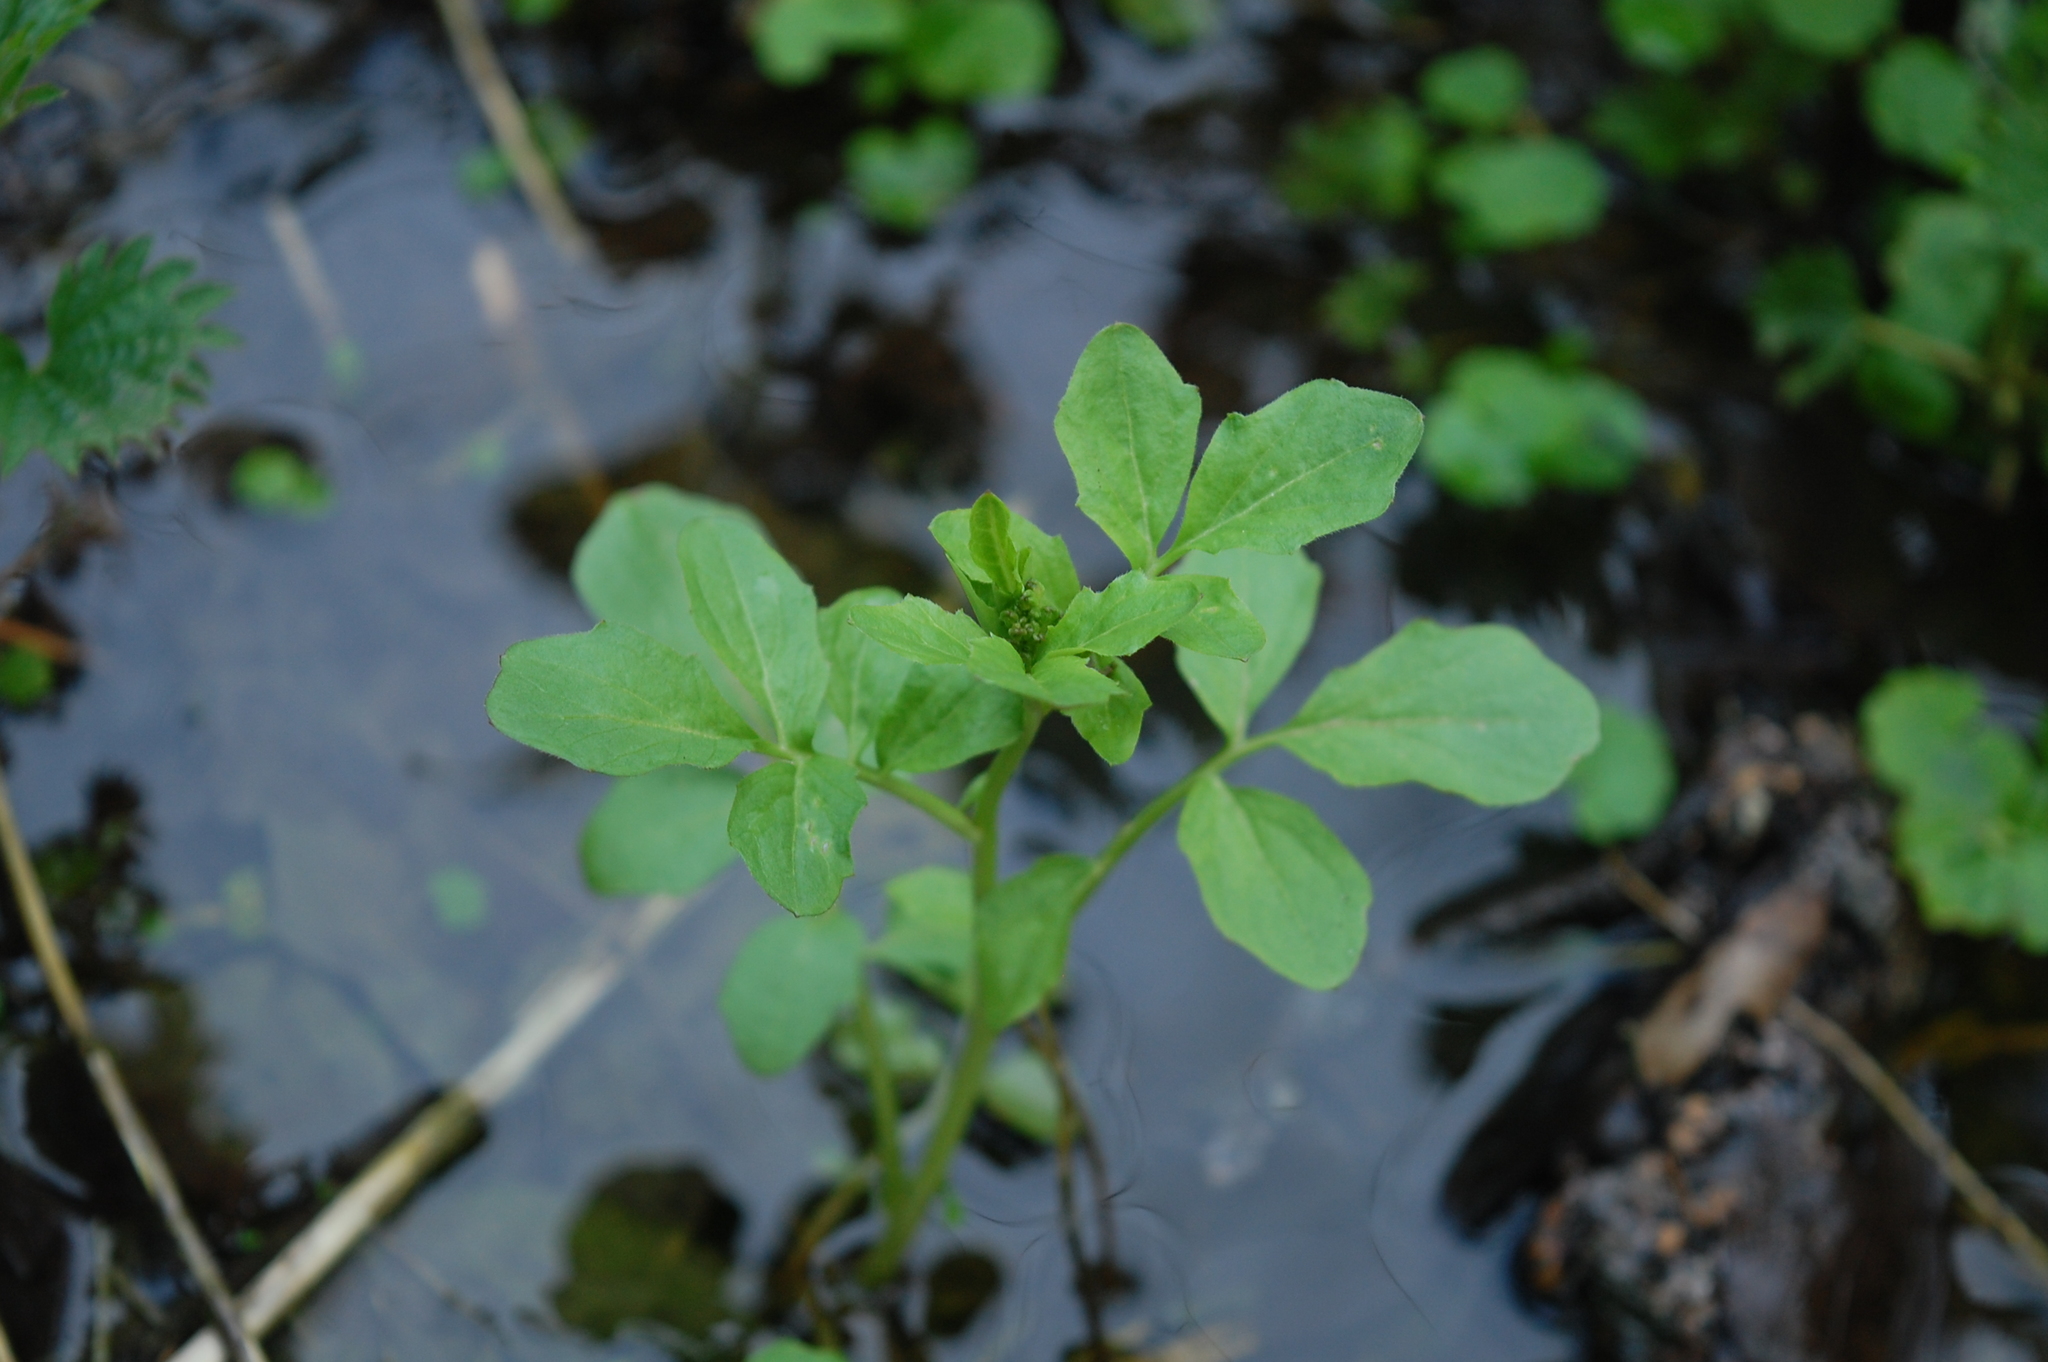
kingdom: Plantae
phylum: Tracheophyta
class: Magnoliopsida
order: Brassicales
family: Brassicaceae
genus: Cardamine
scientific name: Cardamine amara
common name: Large bitter-cress
